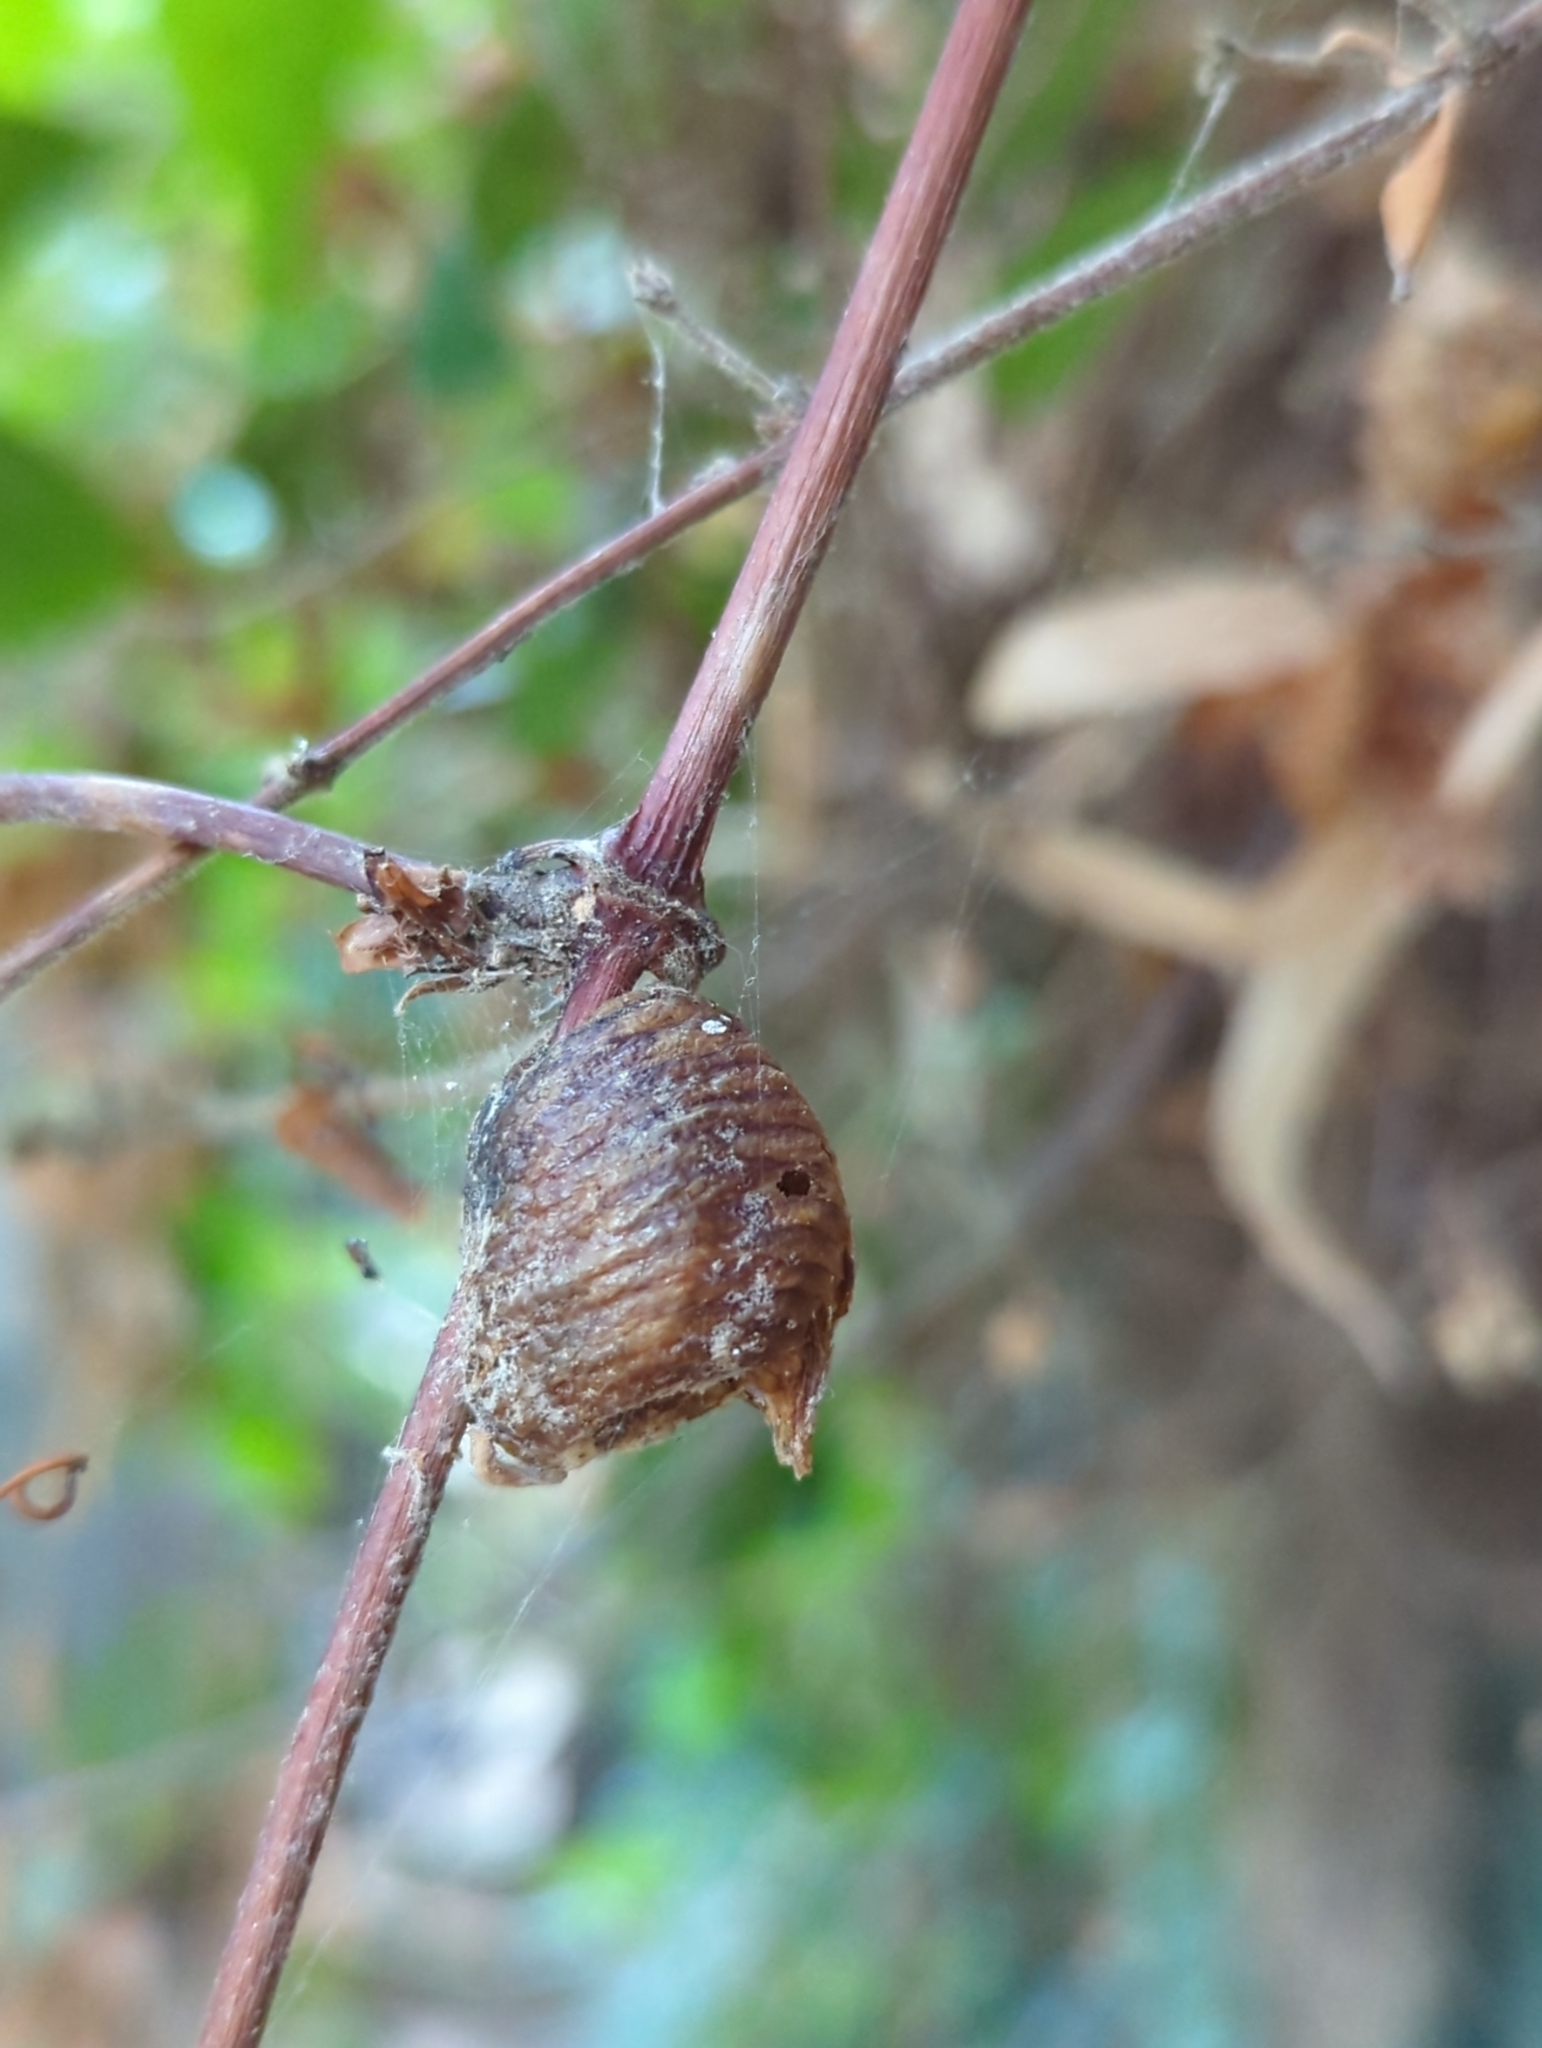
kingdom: Animalia
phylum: Arthropoda
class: Insecta
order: Mantodea
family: Mantidae
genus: Hierodula
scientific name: Hierodula transcaucasica
